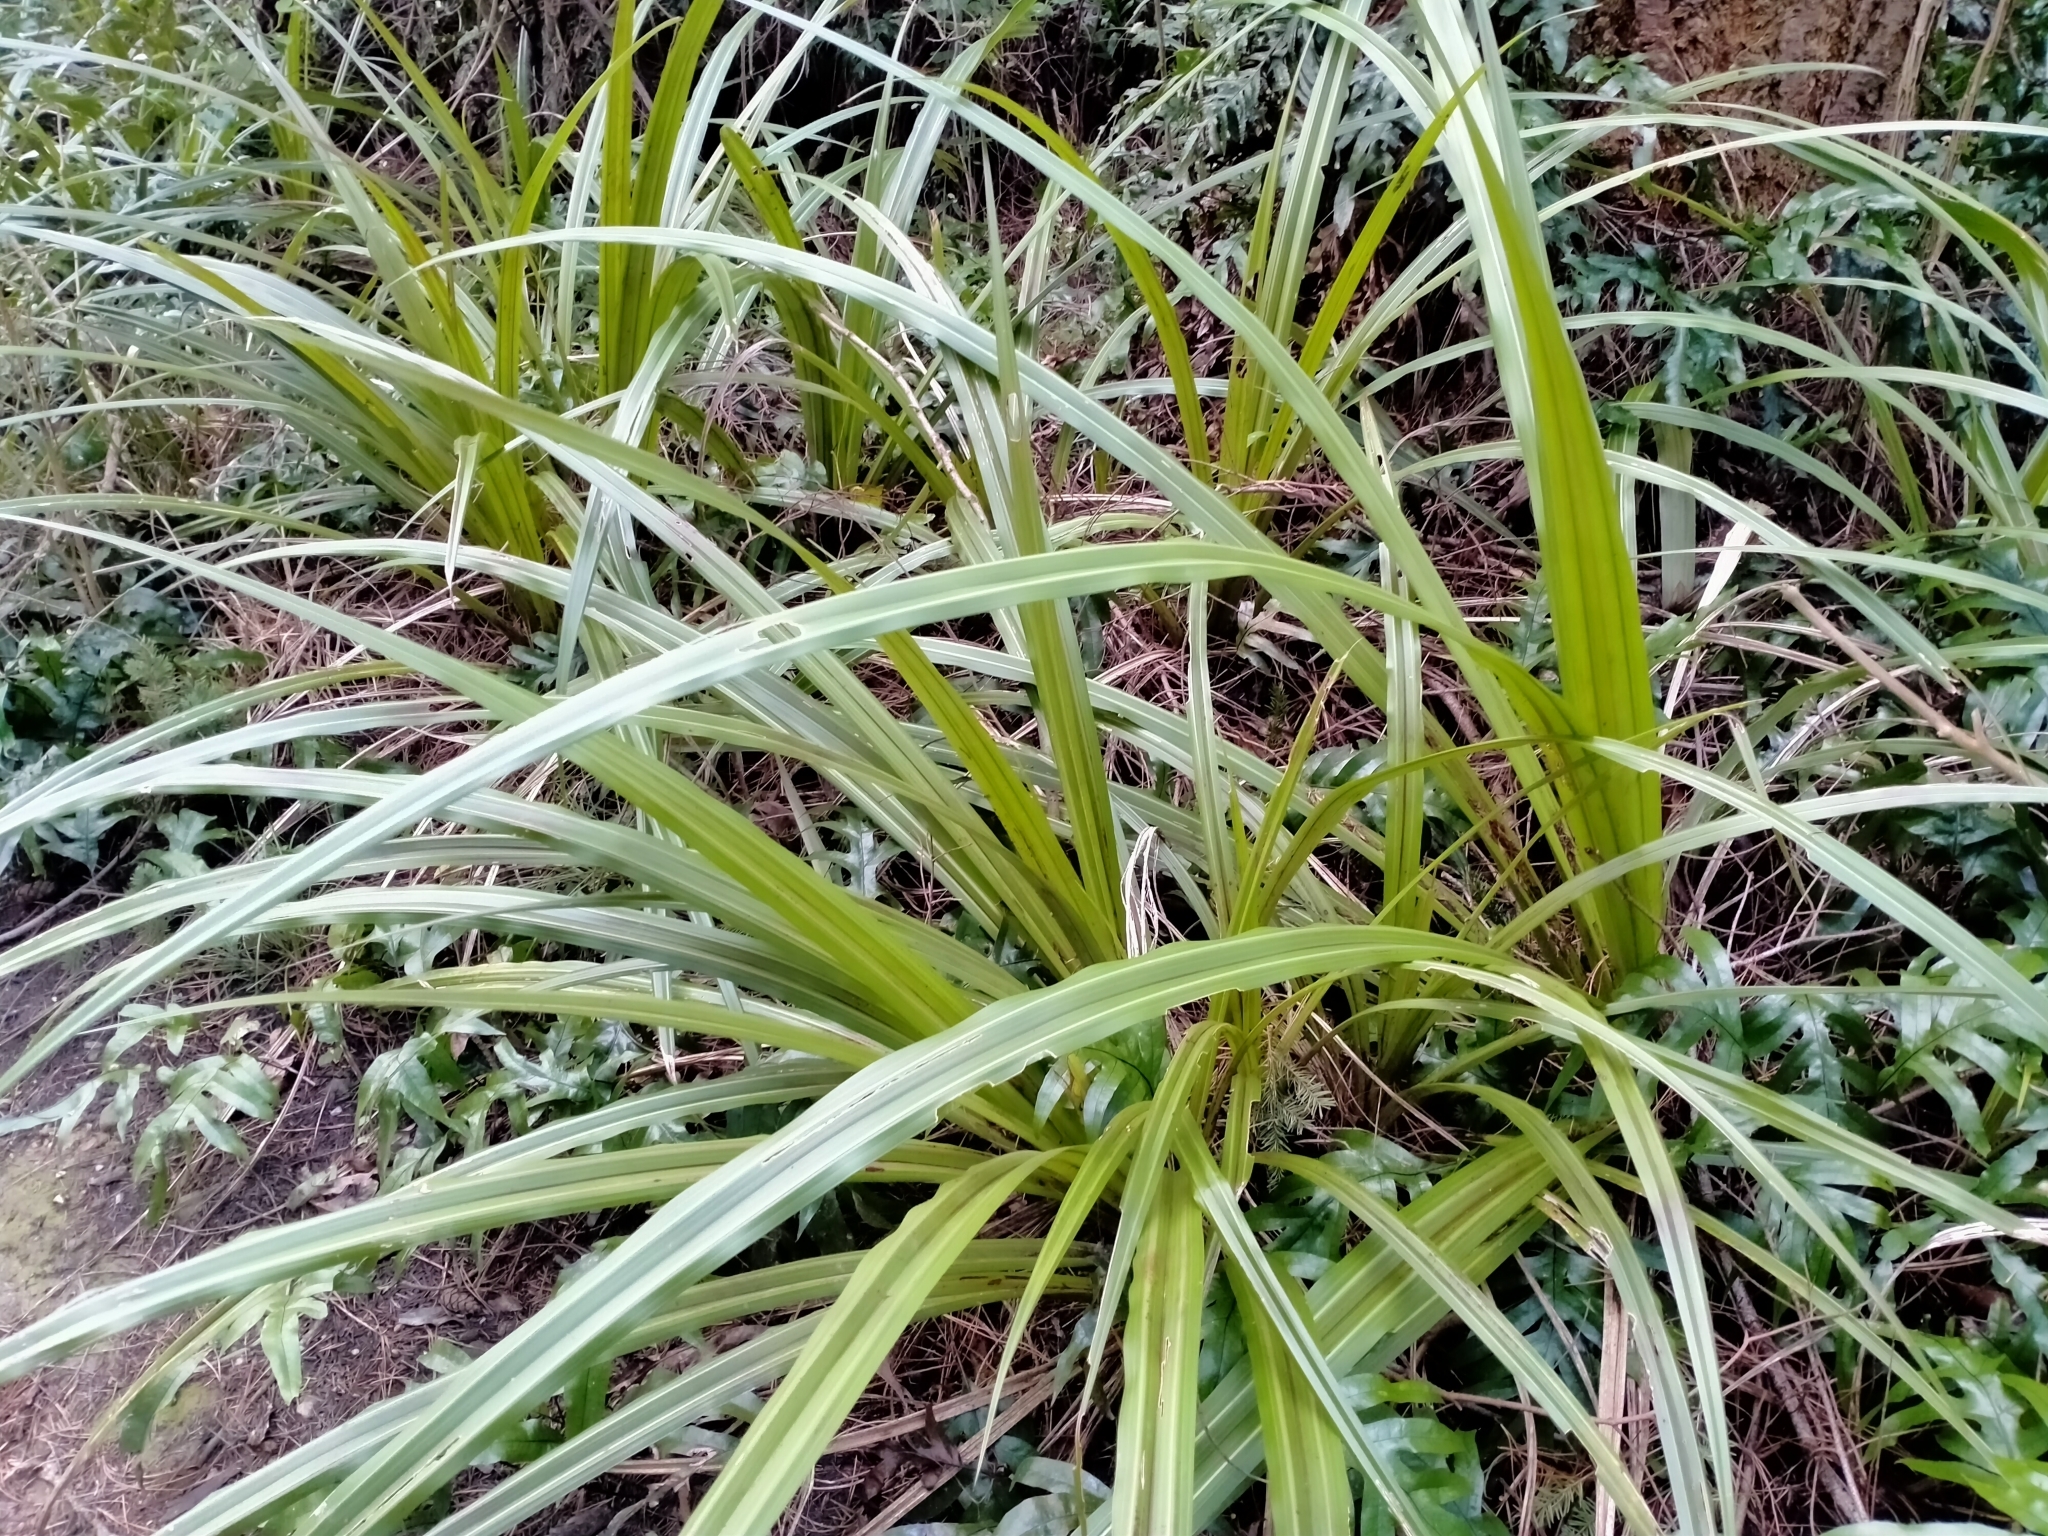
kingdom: Plantae
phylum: Tracheophyta
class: Liliopsida
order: Asparagales
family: Asteliaceae
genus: Astelia
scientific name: Astelia fragrans
